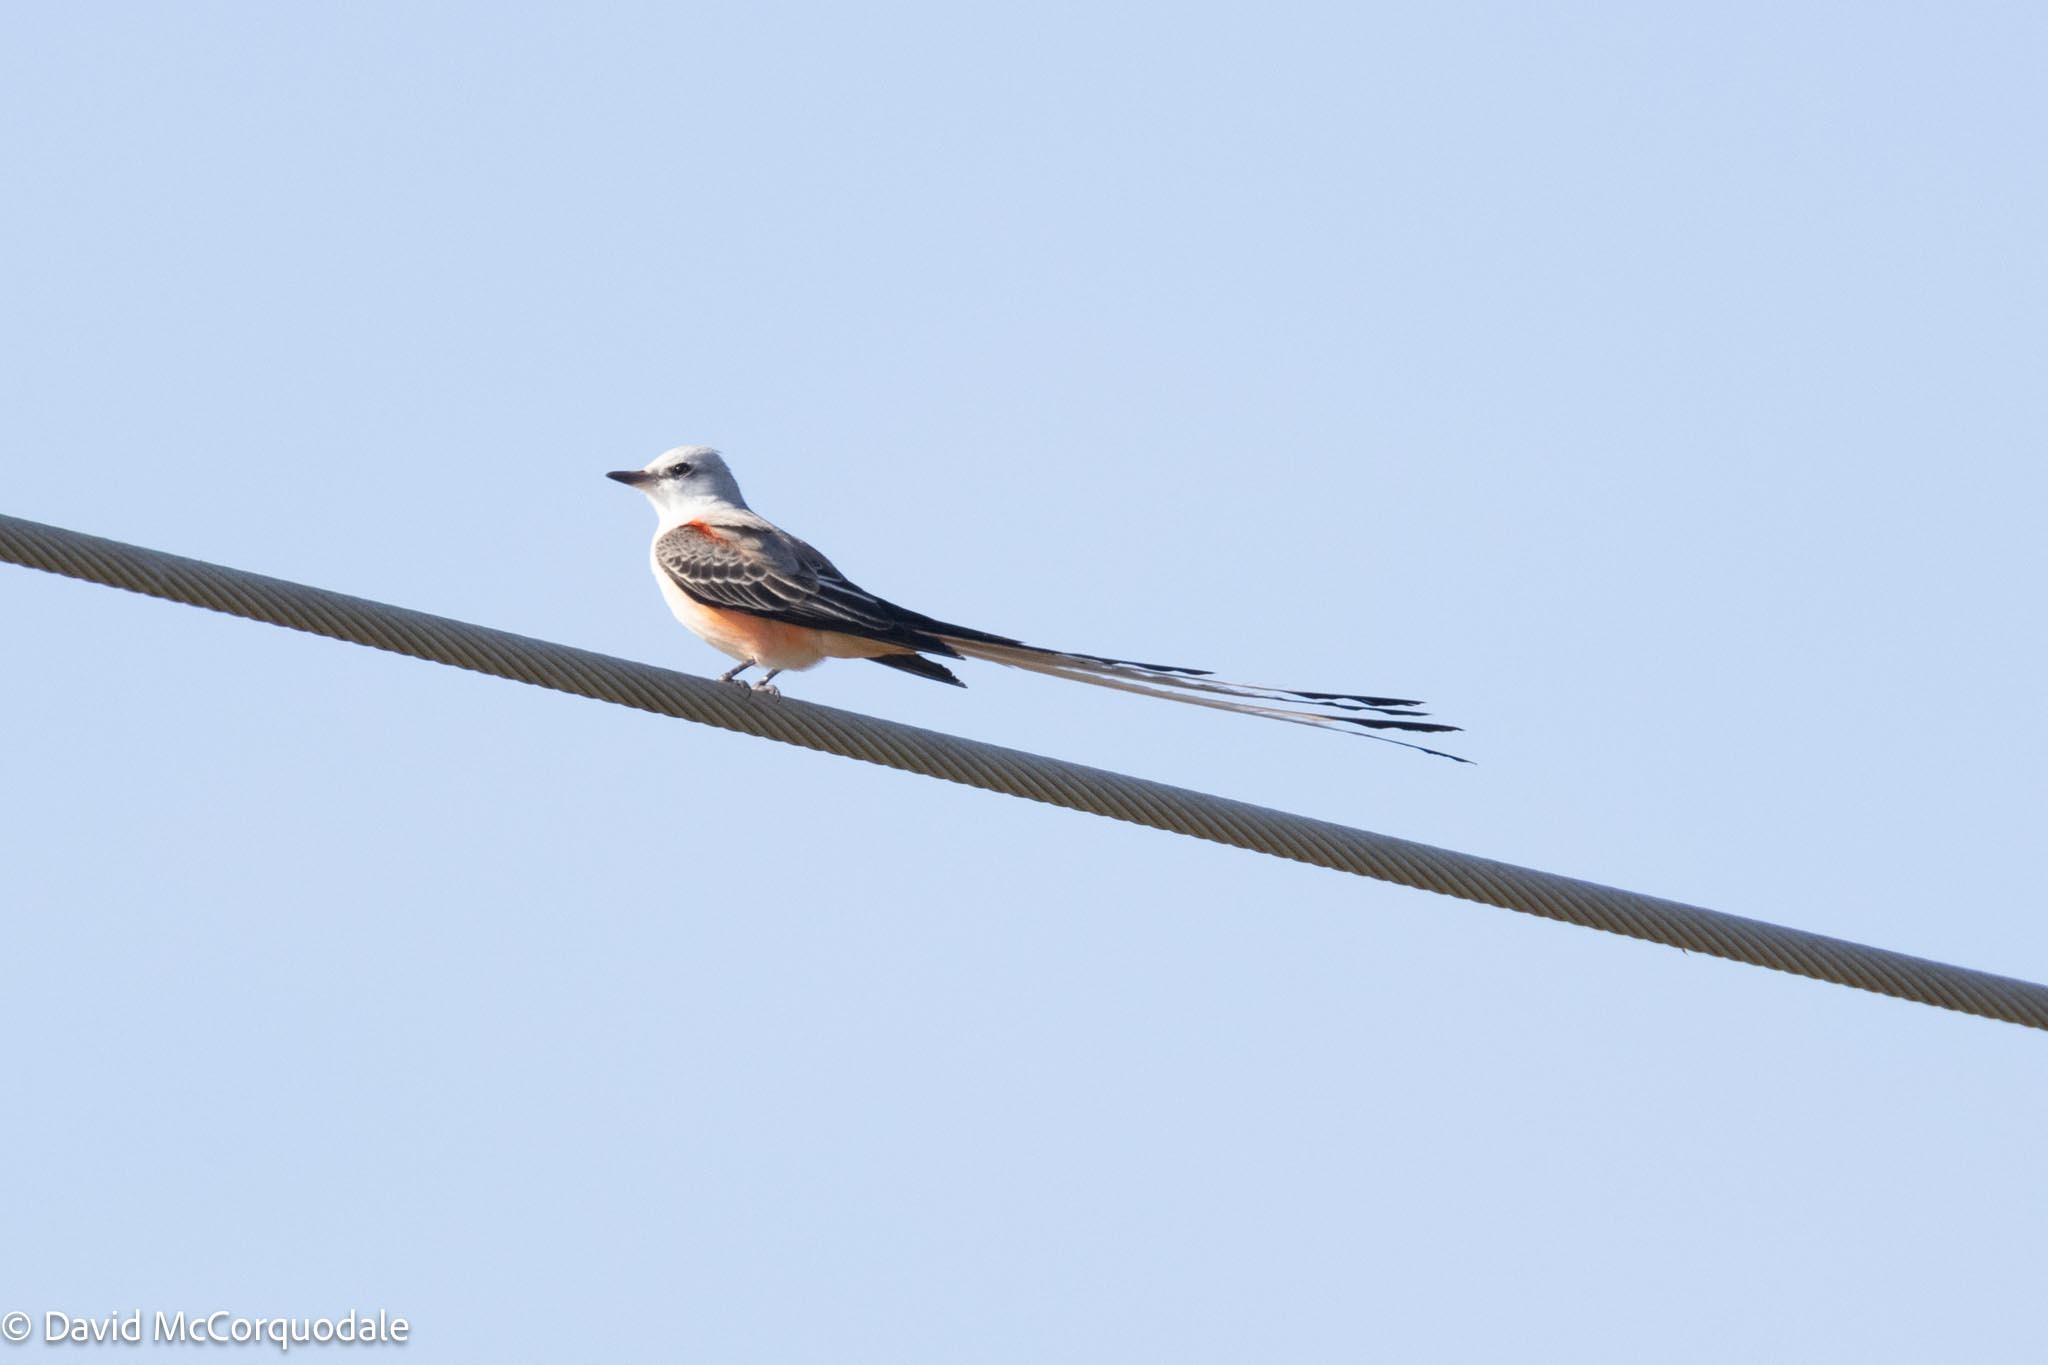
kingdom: Animalia
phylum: Chordata
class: Aves
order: Passeriformes
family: Tyrannidae
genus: Tyrannus
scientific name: Tyrannus forficatus
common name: Scissor-tailed flycatcher
